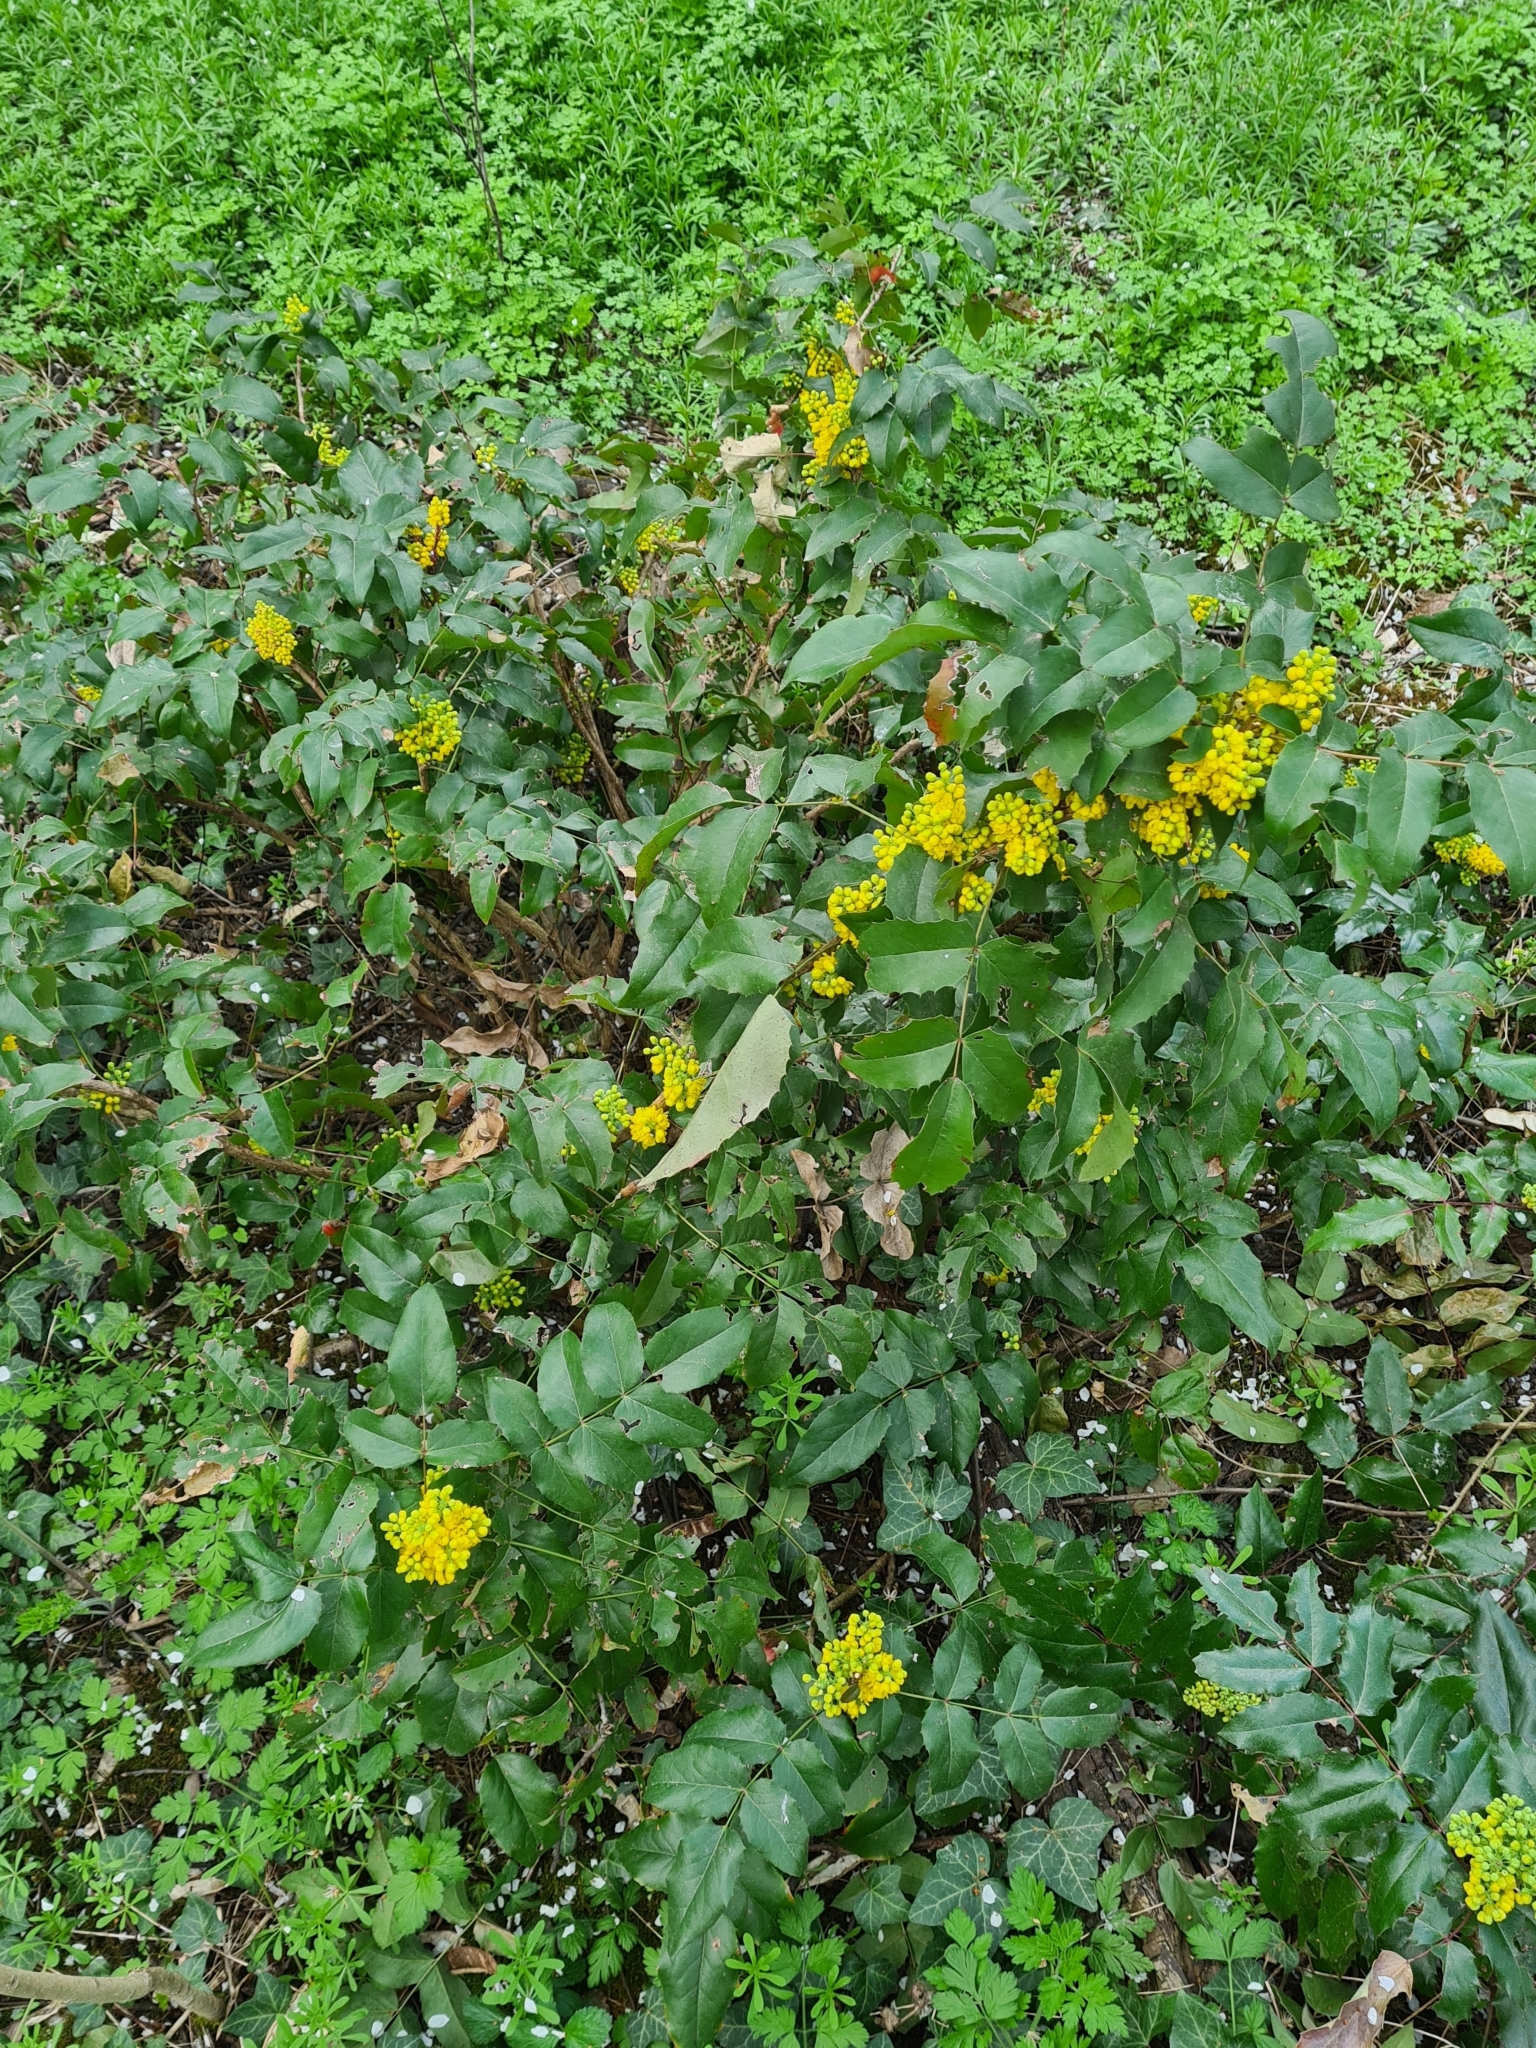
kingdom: Plantae
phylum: Tracheophyta
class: Magnoliopsida
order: Ranunculales
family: Berberidaceae
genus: Mahonia
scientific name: Mahonia aquifolium
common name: Oregon-grape
